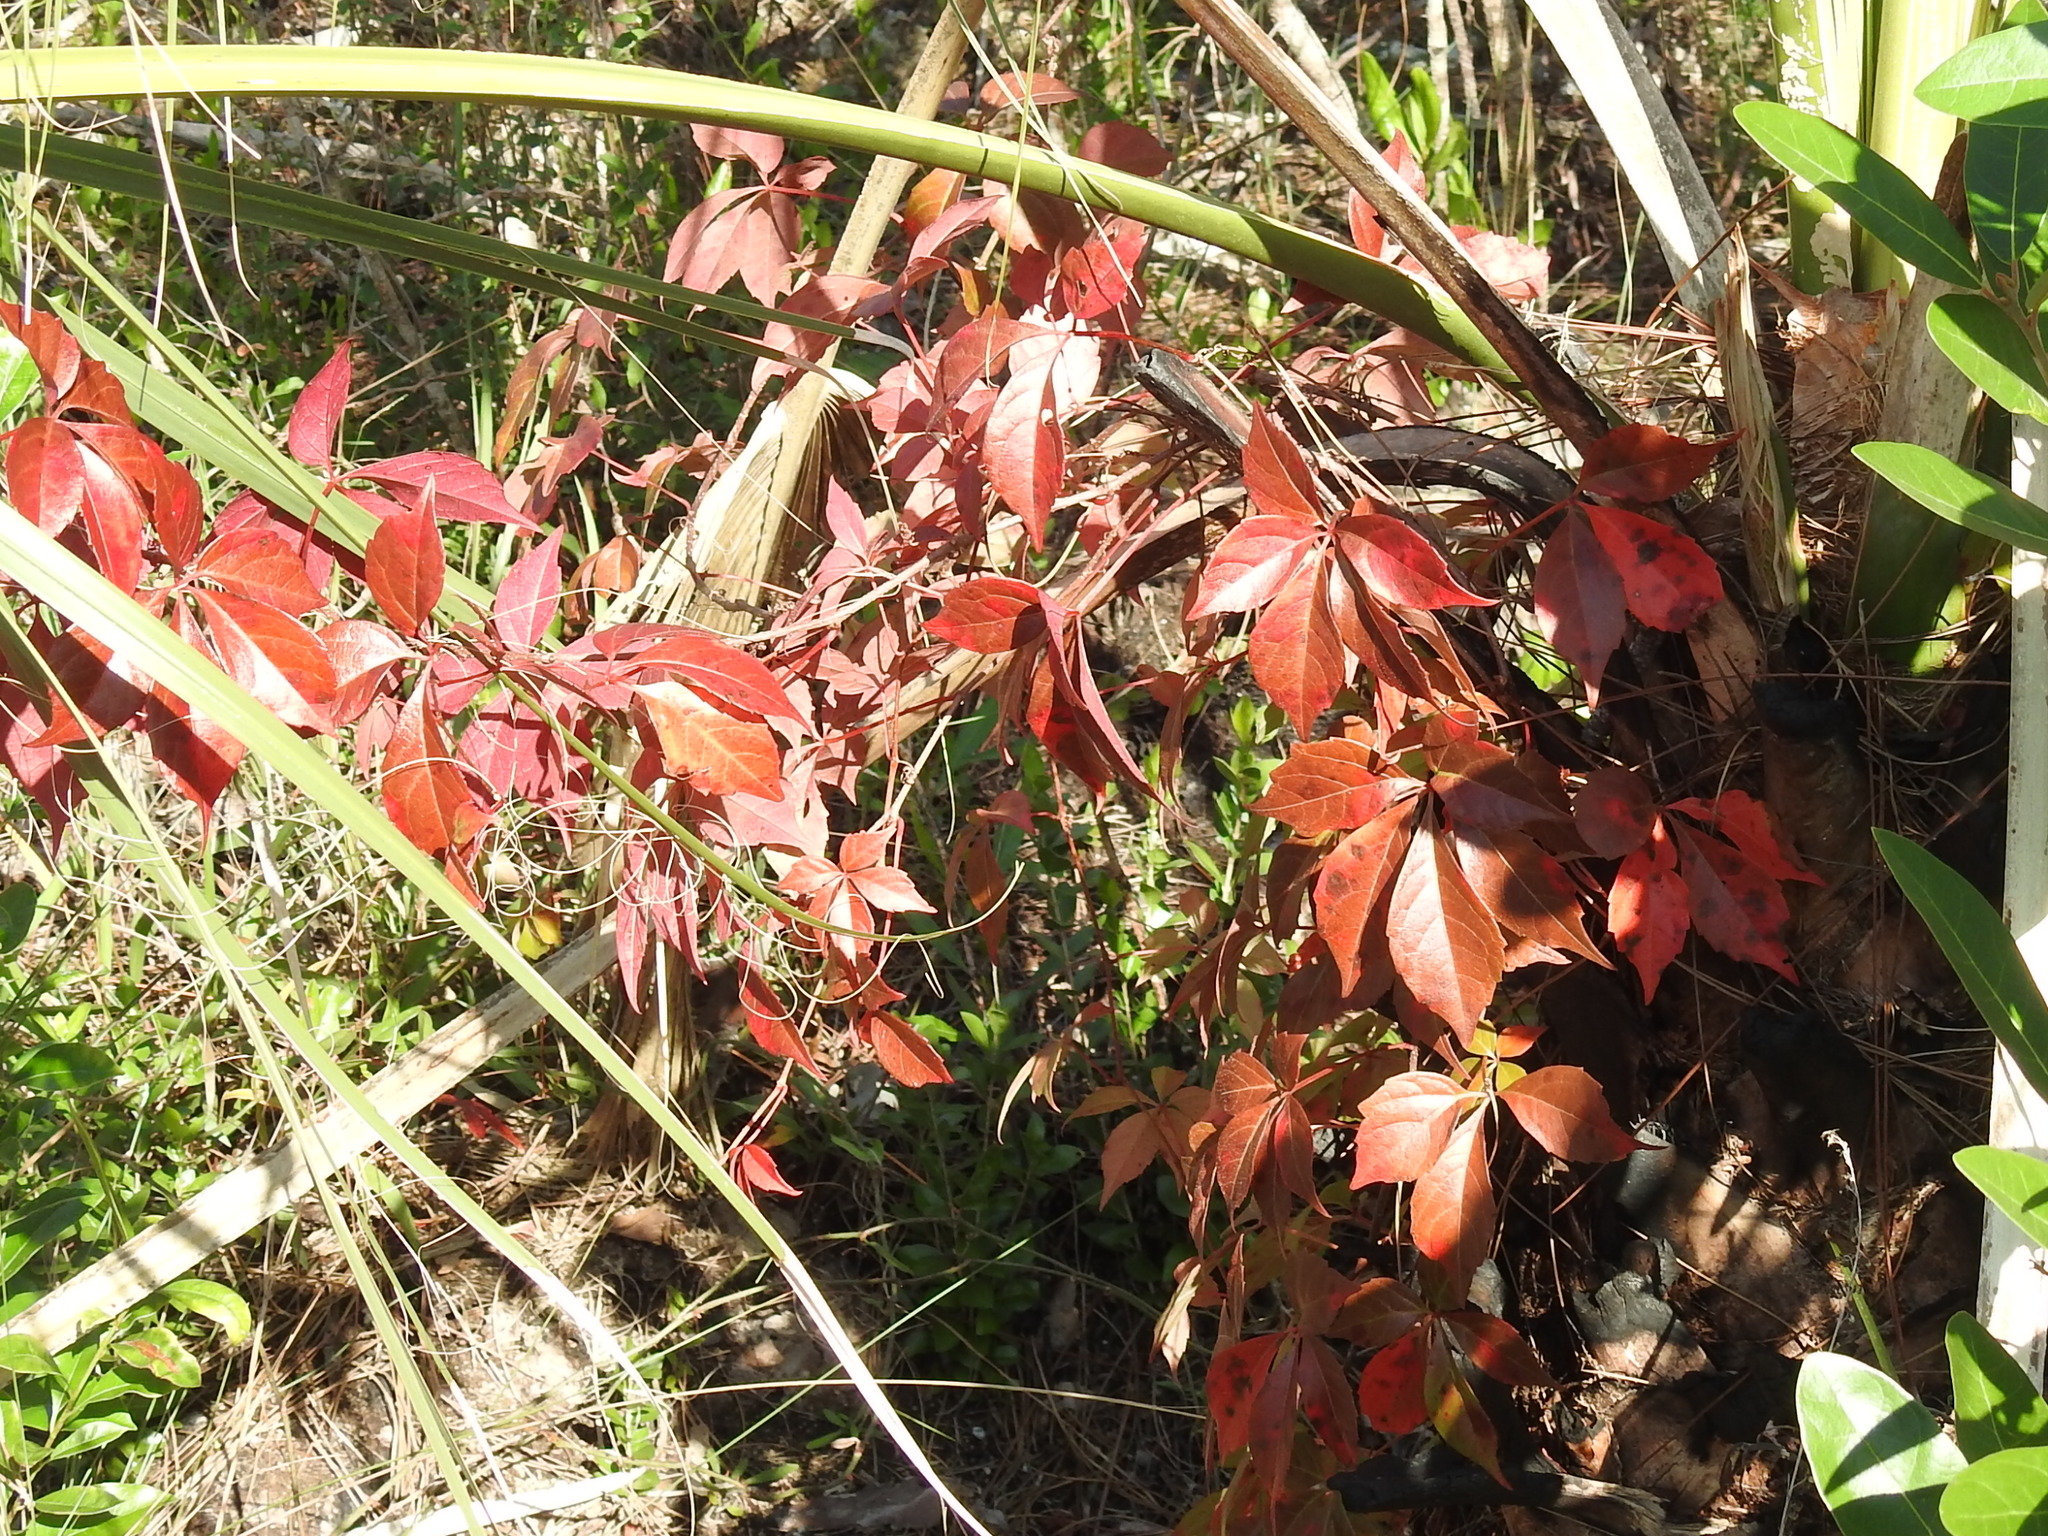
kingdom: Plantae
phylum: Tracheophyta
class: Magnoliopsida
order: Vitales
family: Vitaceae
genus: Parthenocissus
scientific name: Parthenocissus quinquefolia
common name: Virginia-creeper
